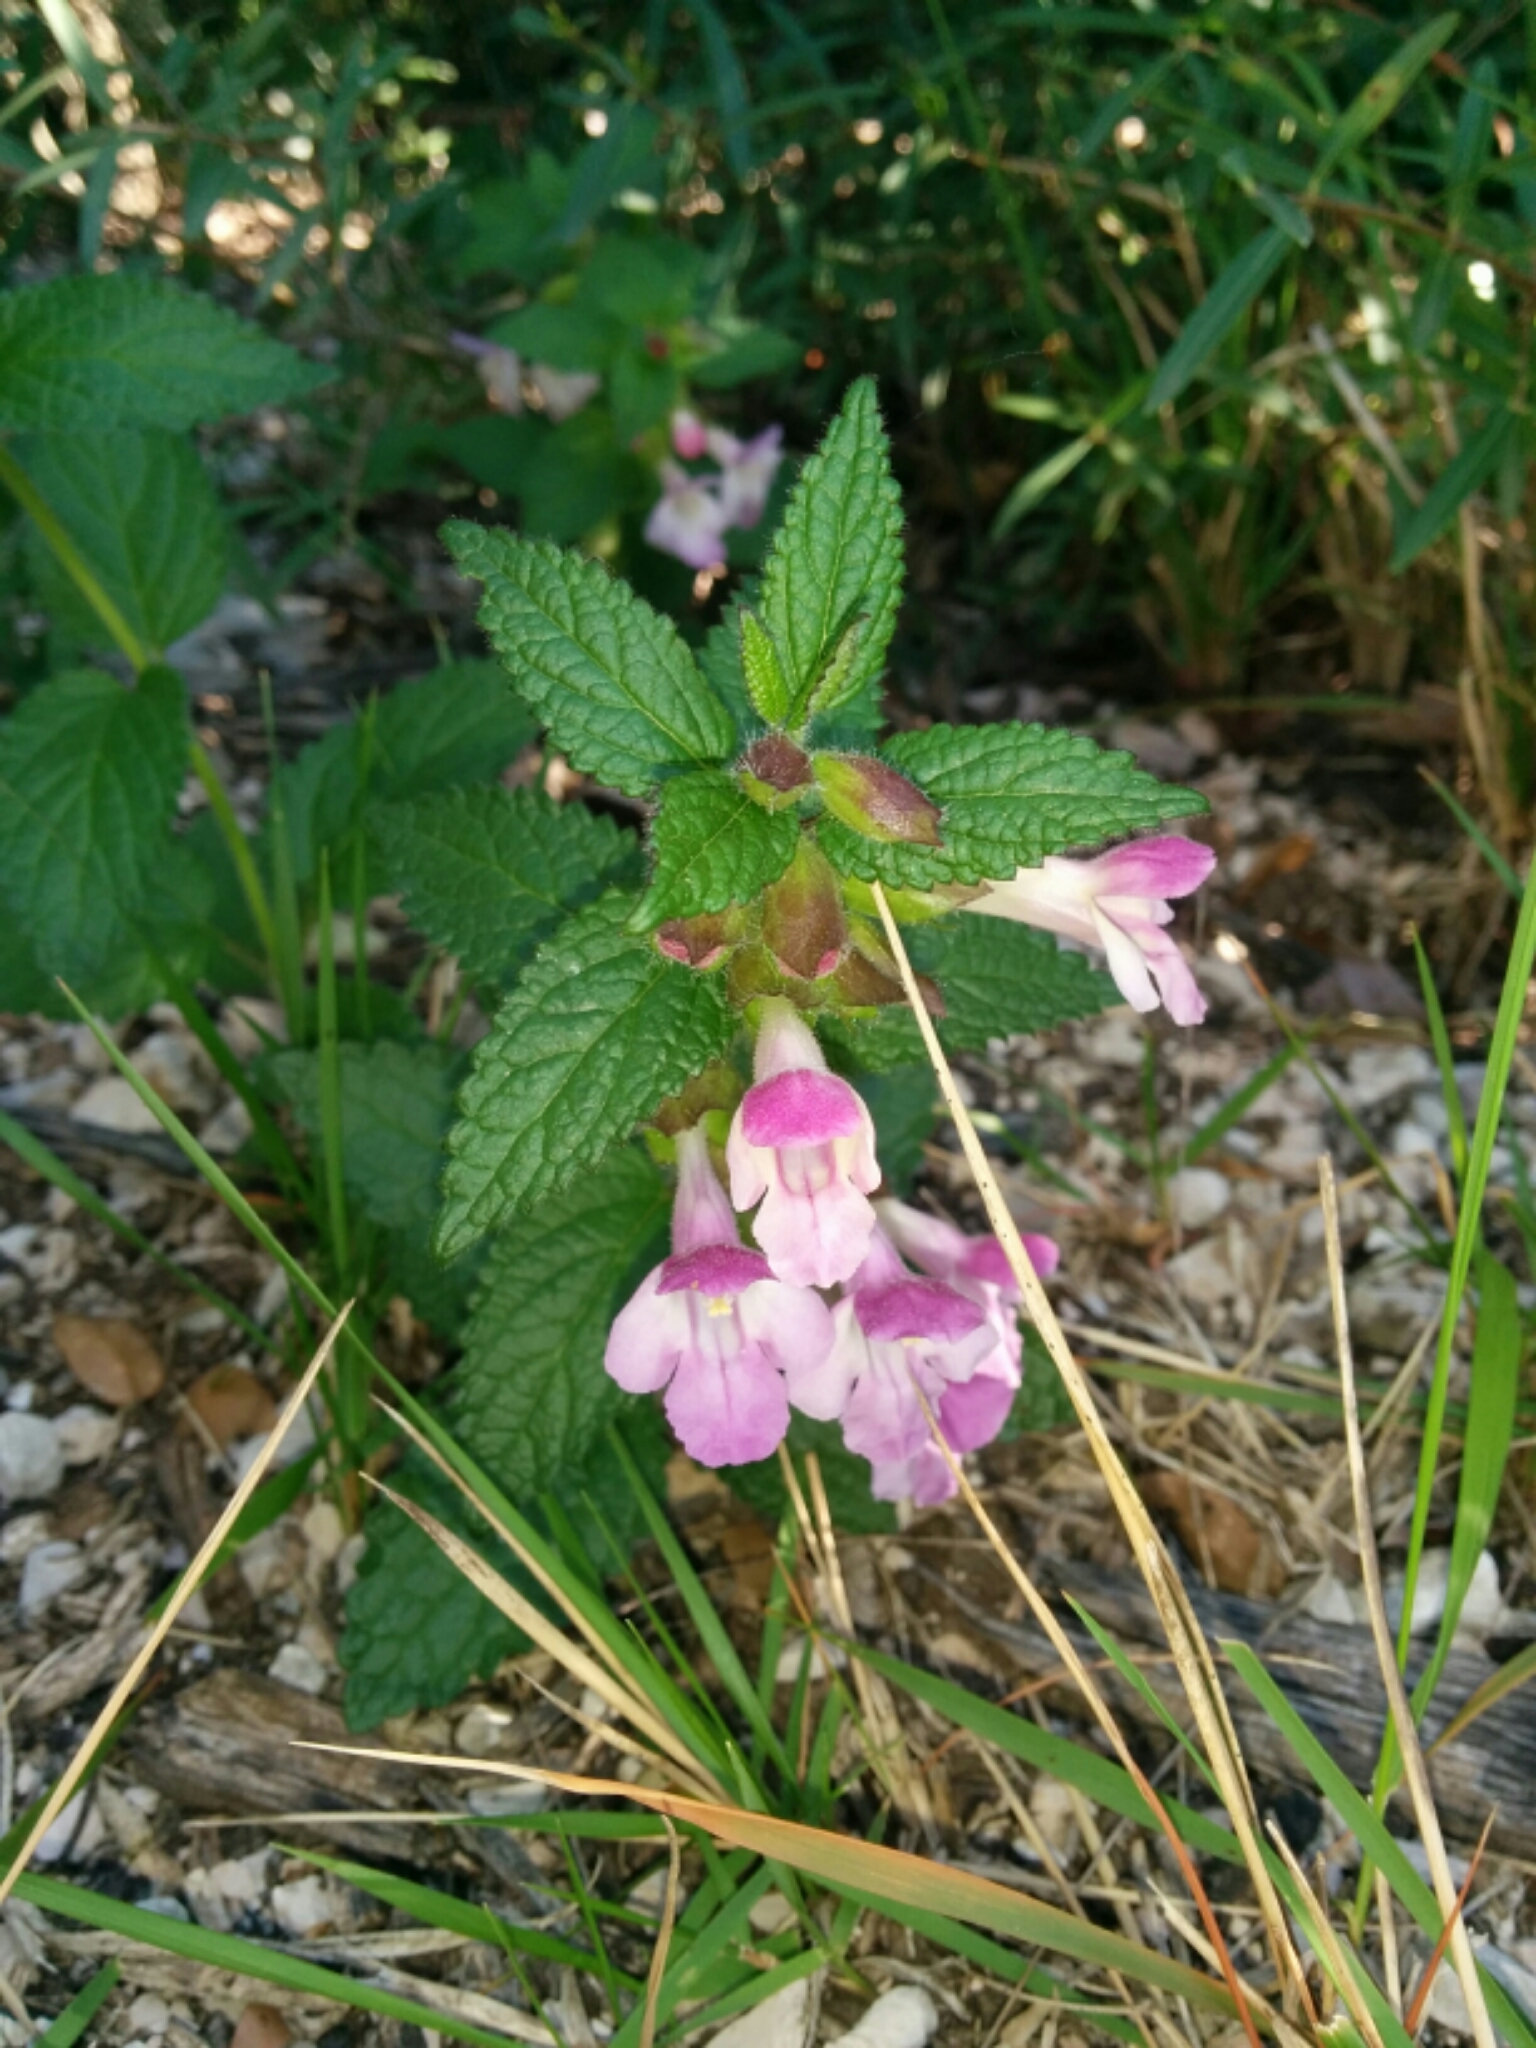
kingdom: Plantae
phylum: Tracheophyta
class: Magnoliopsida
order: Lamiales
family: Lamiaceae
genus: Melittis
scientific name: Melittis melissophyllum
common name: Bastard balm
